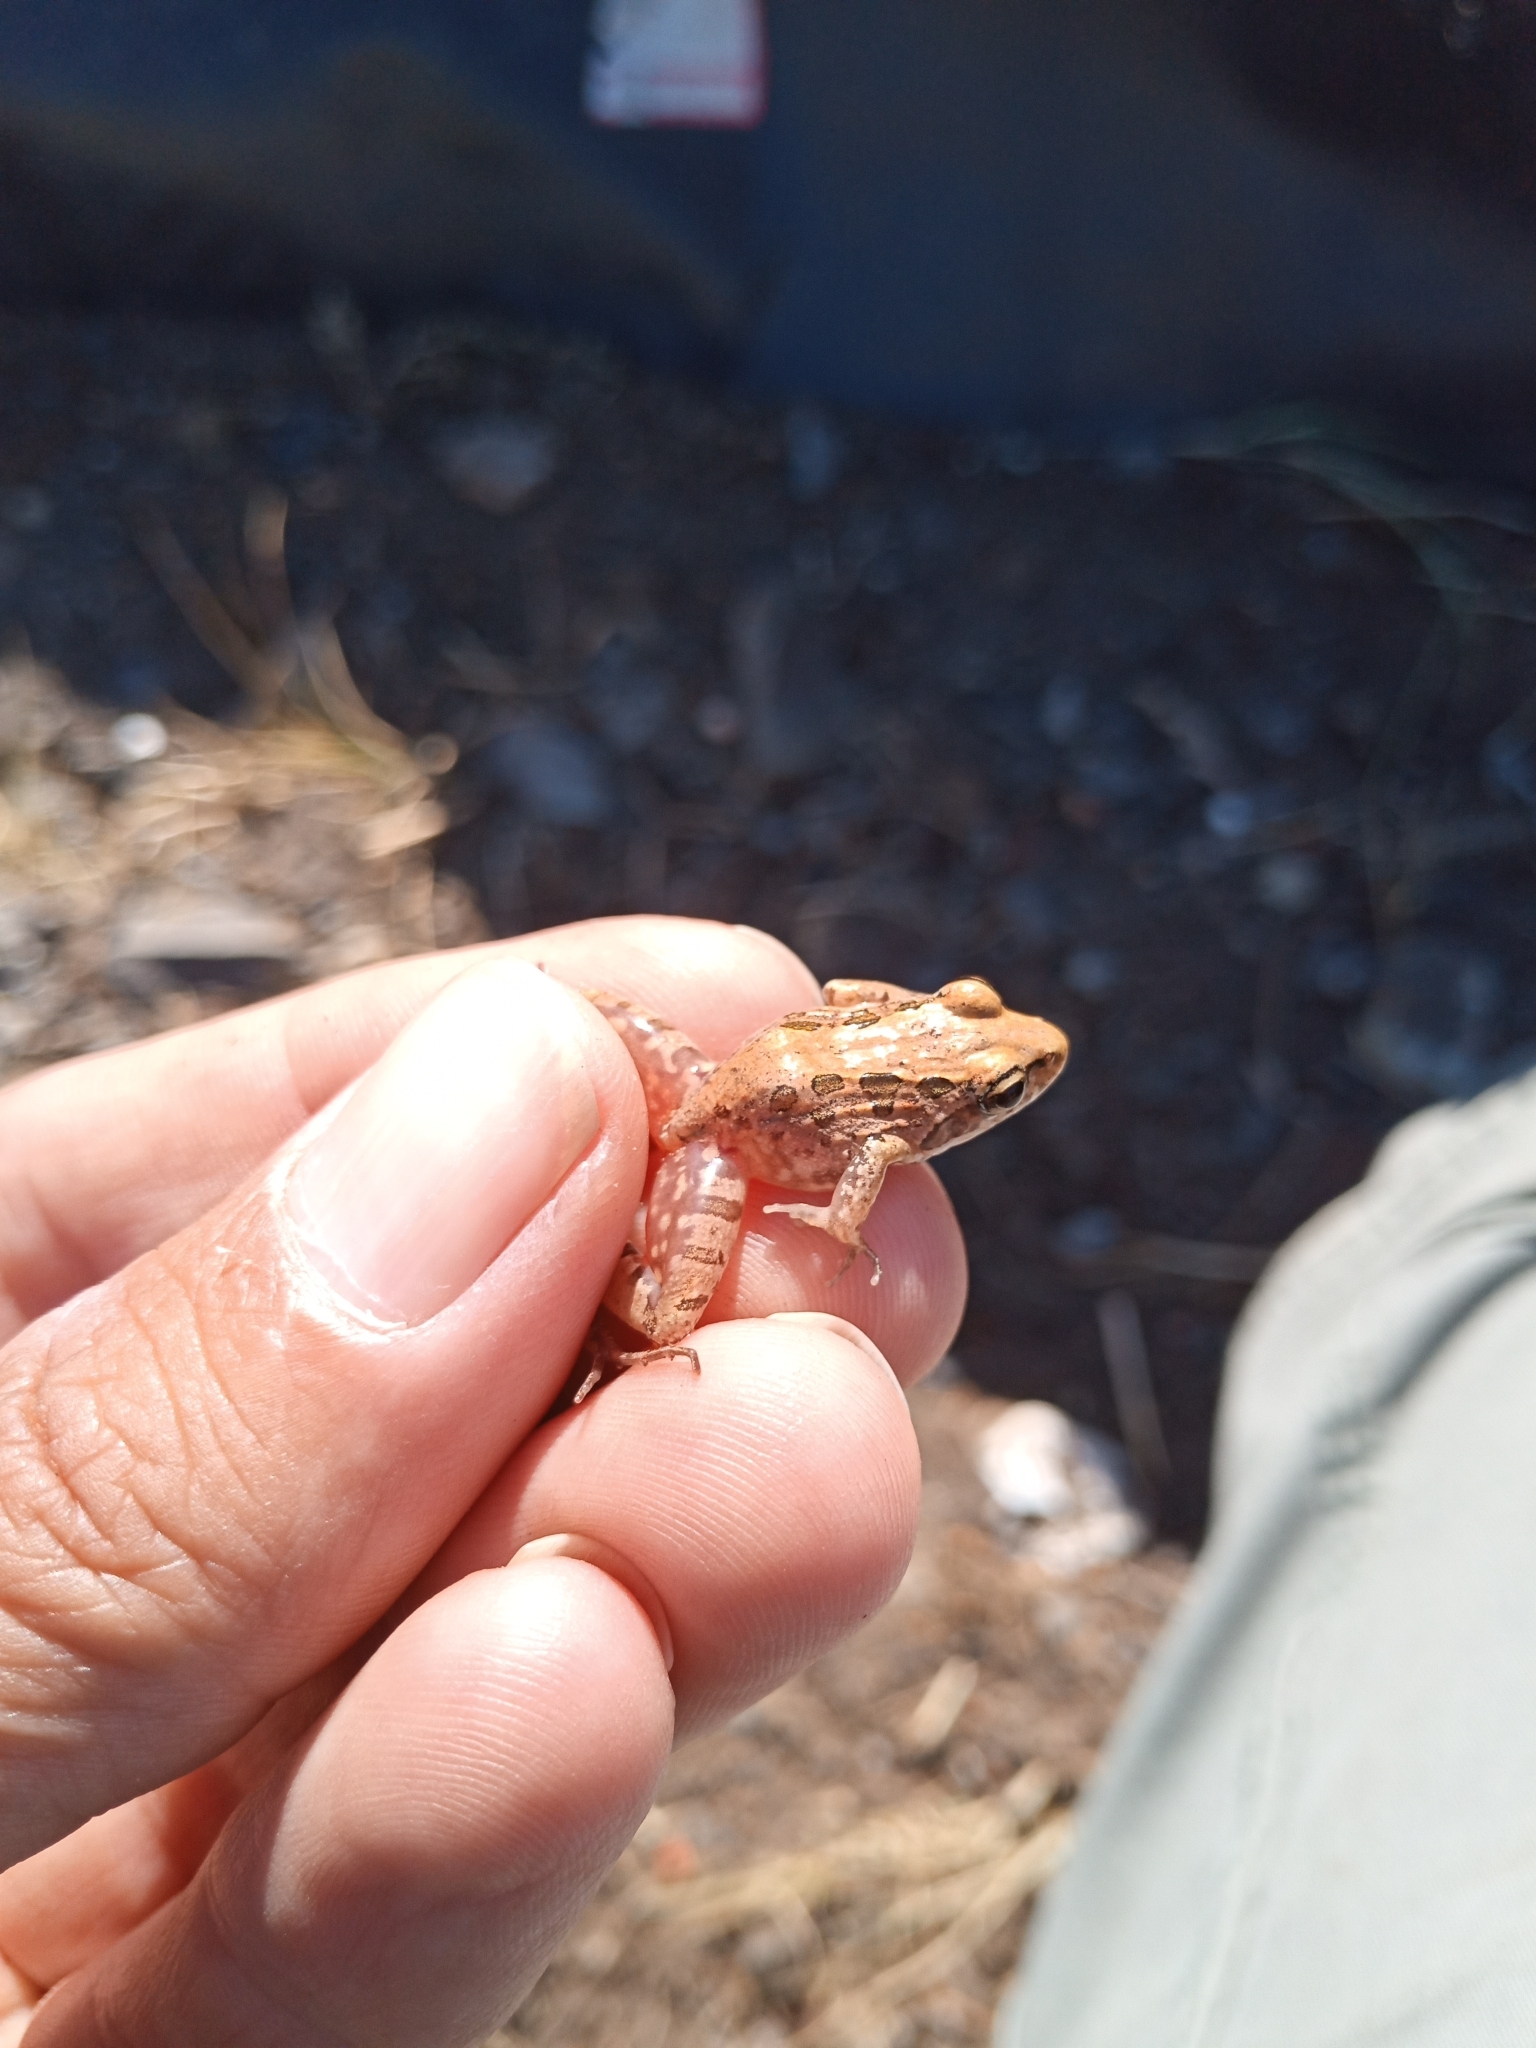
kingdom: Animalia
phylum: Chordata
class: Amphibia
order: Anura
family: Pyxicephalidae
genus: Strongylopus
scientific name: Strongylopus grayii
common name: Gray's stream frog
